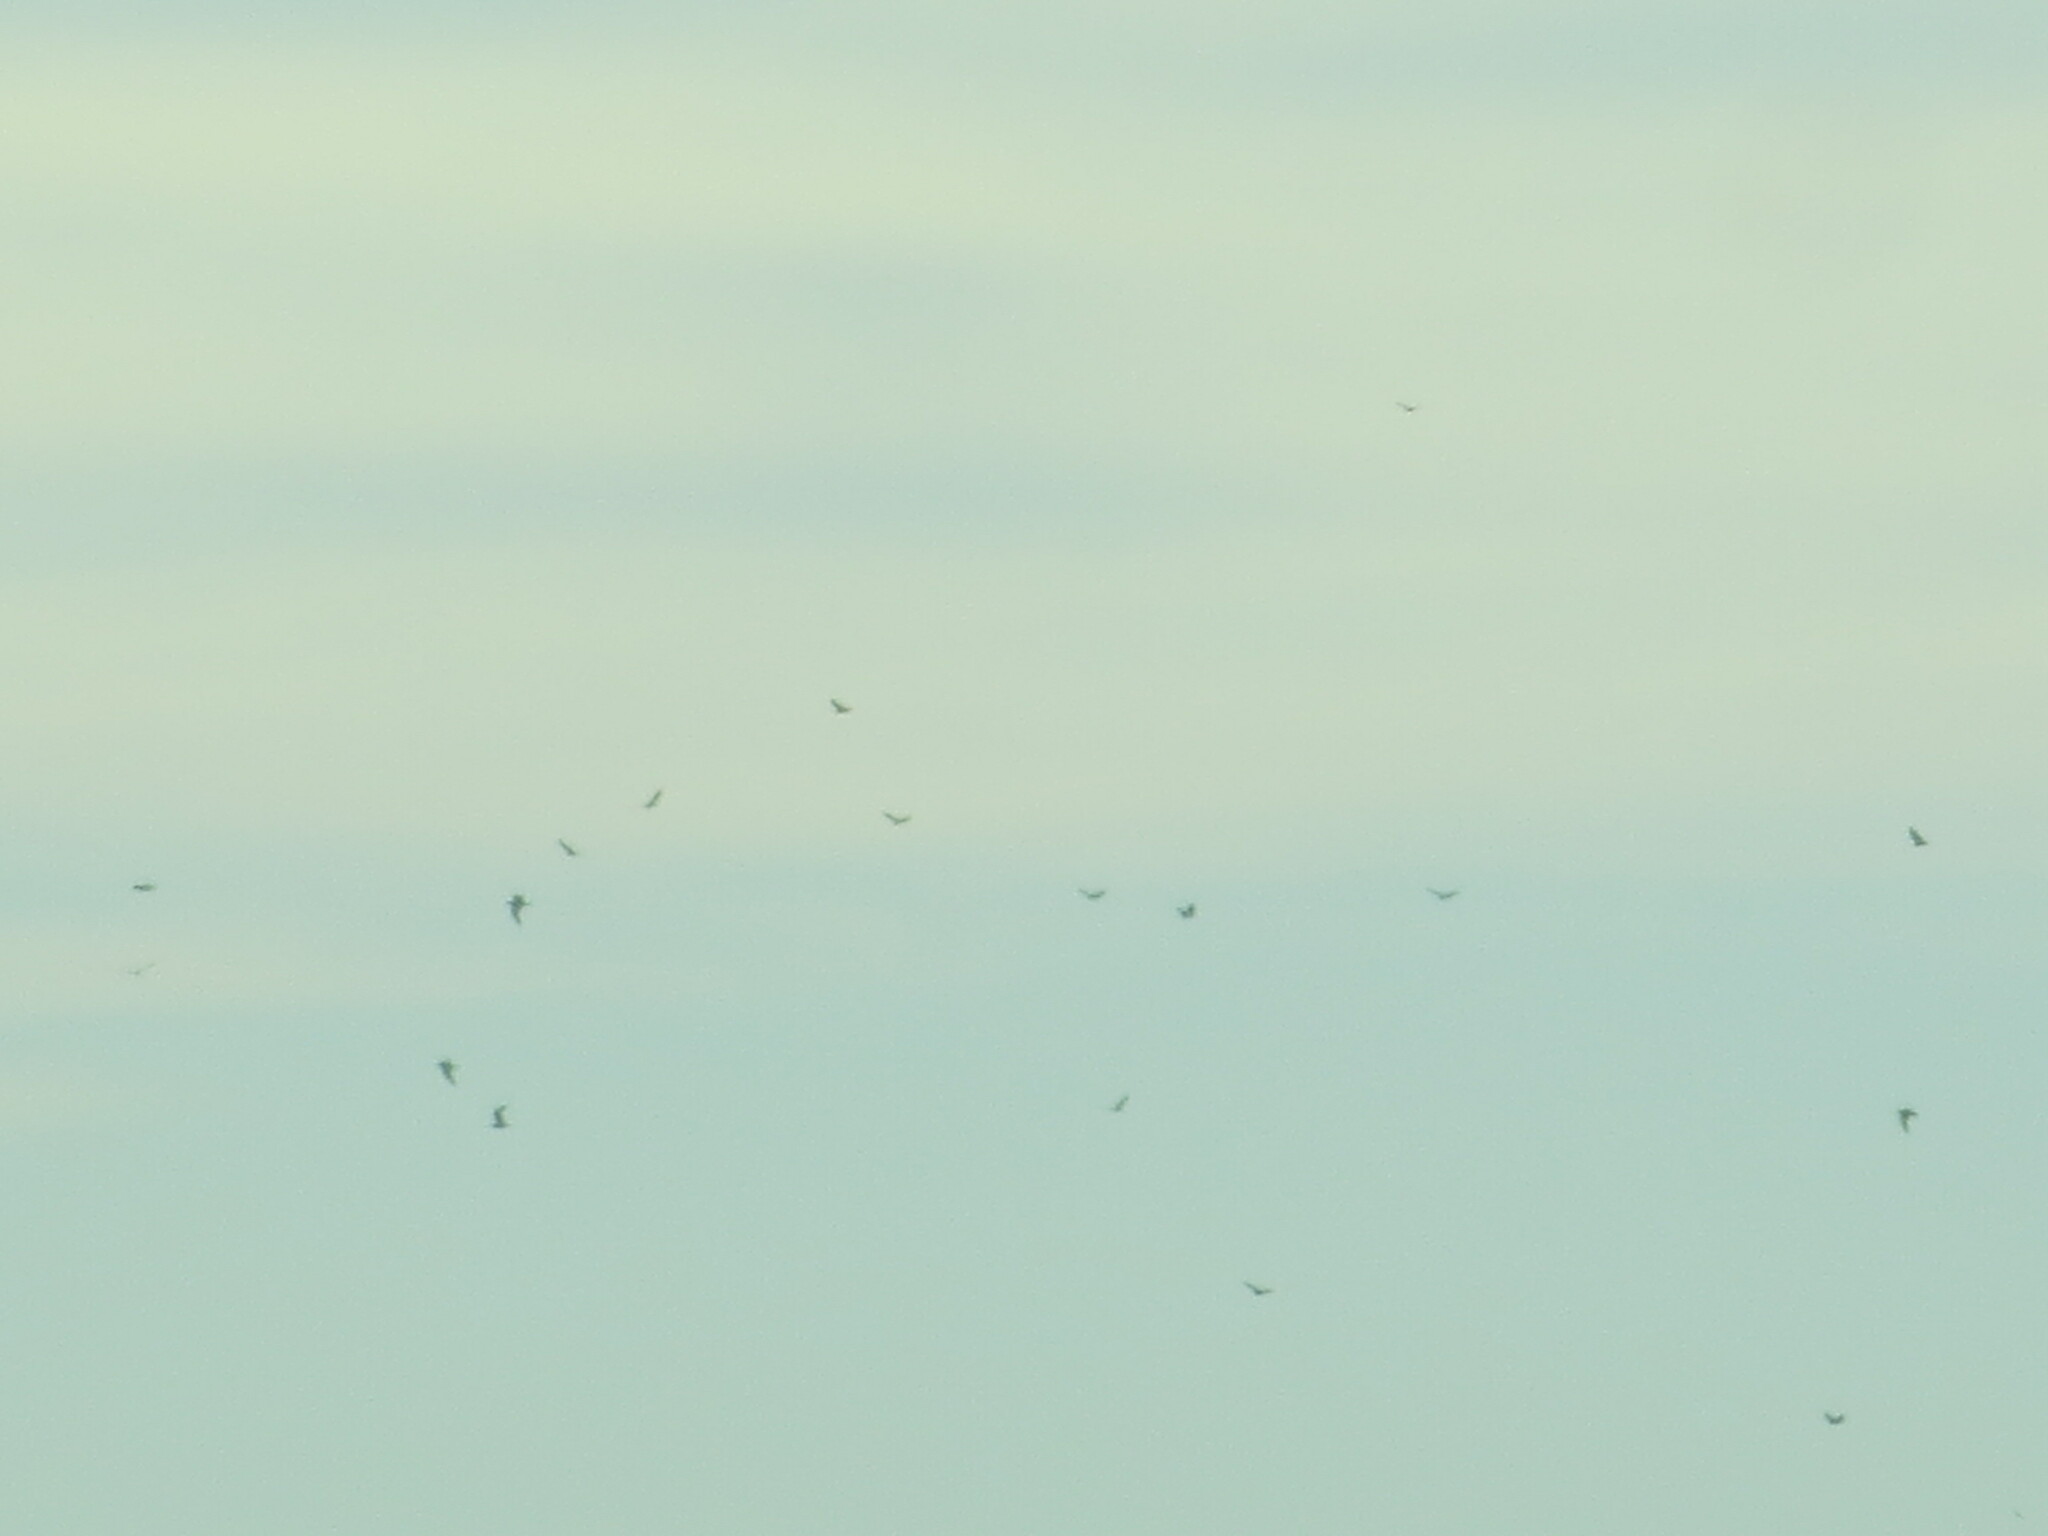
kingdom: Animalia
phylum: Chordata
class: Aves
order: Accipitriformes
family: Cathartidae
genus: Cathartes
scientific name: Cathartes aura
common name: Turkey vulture
